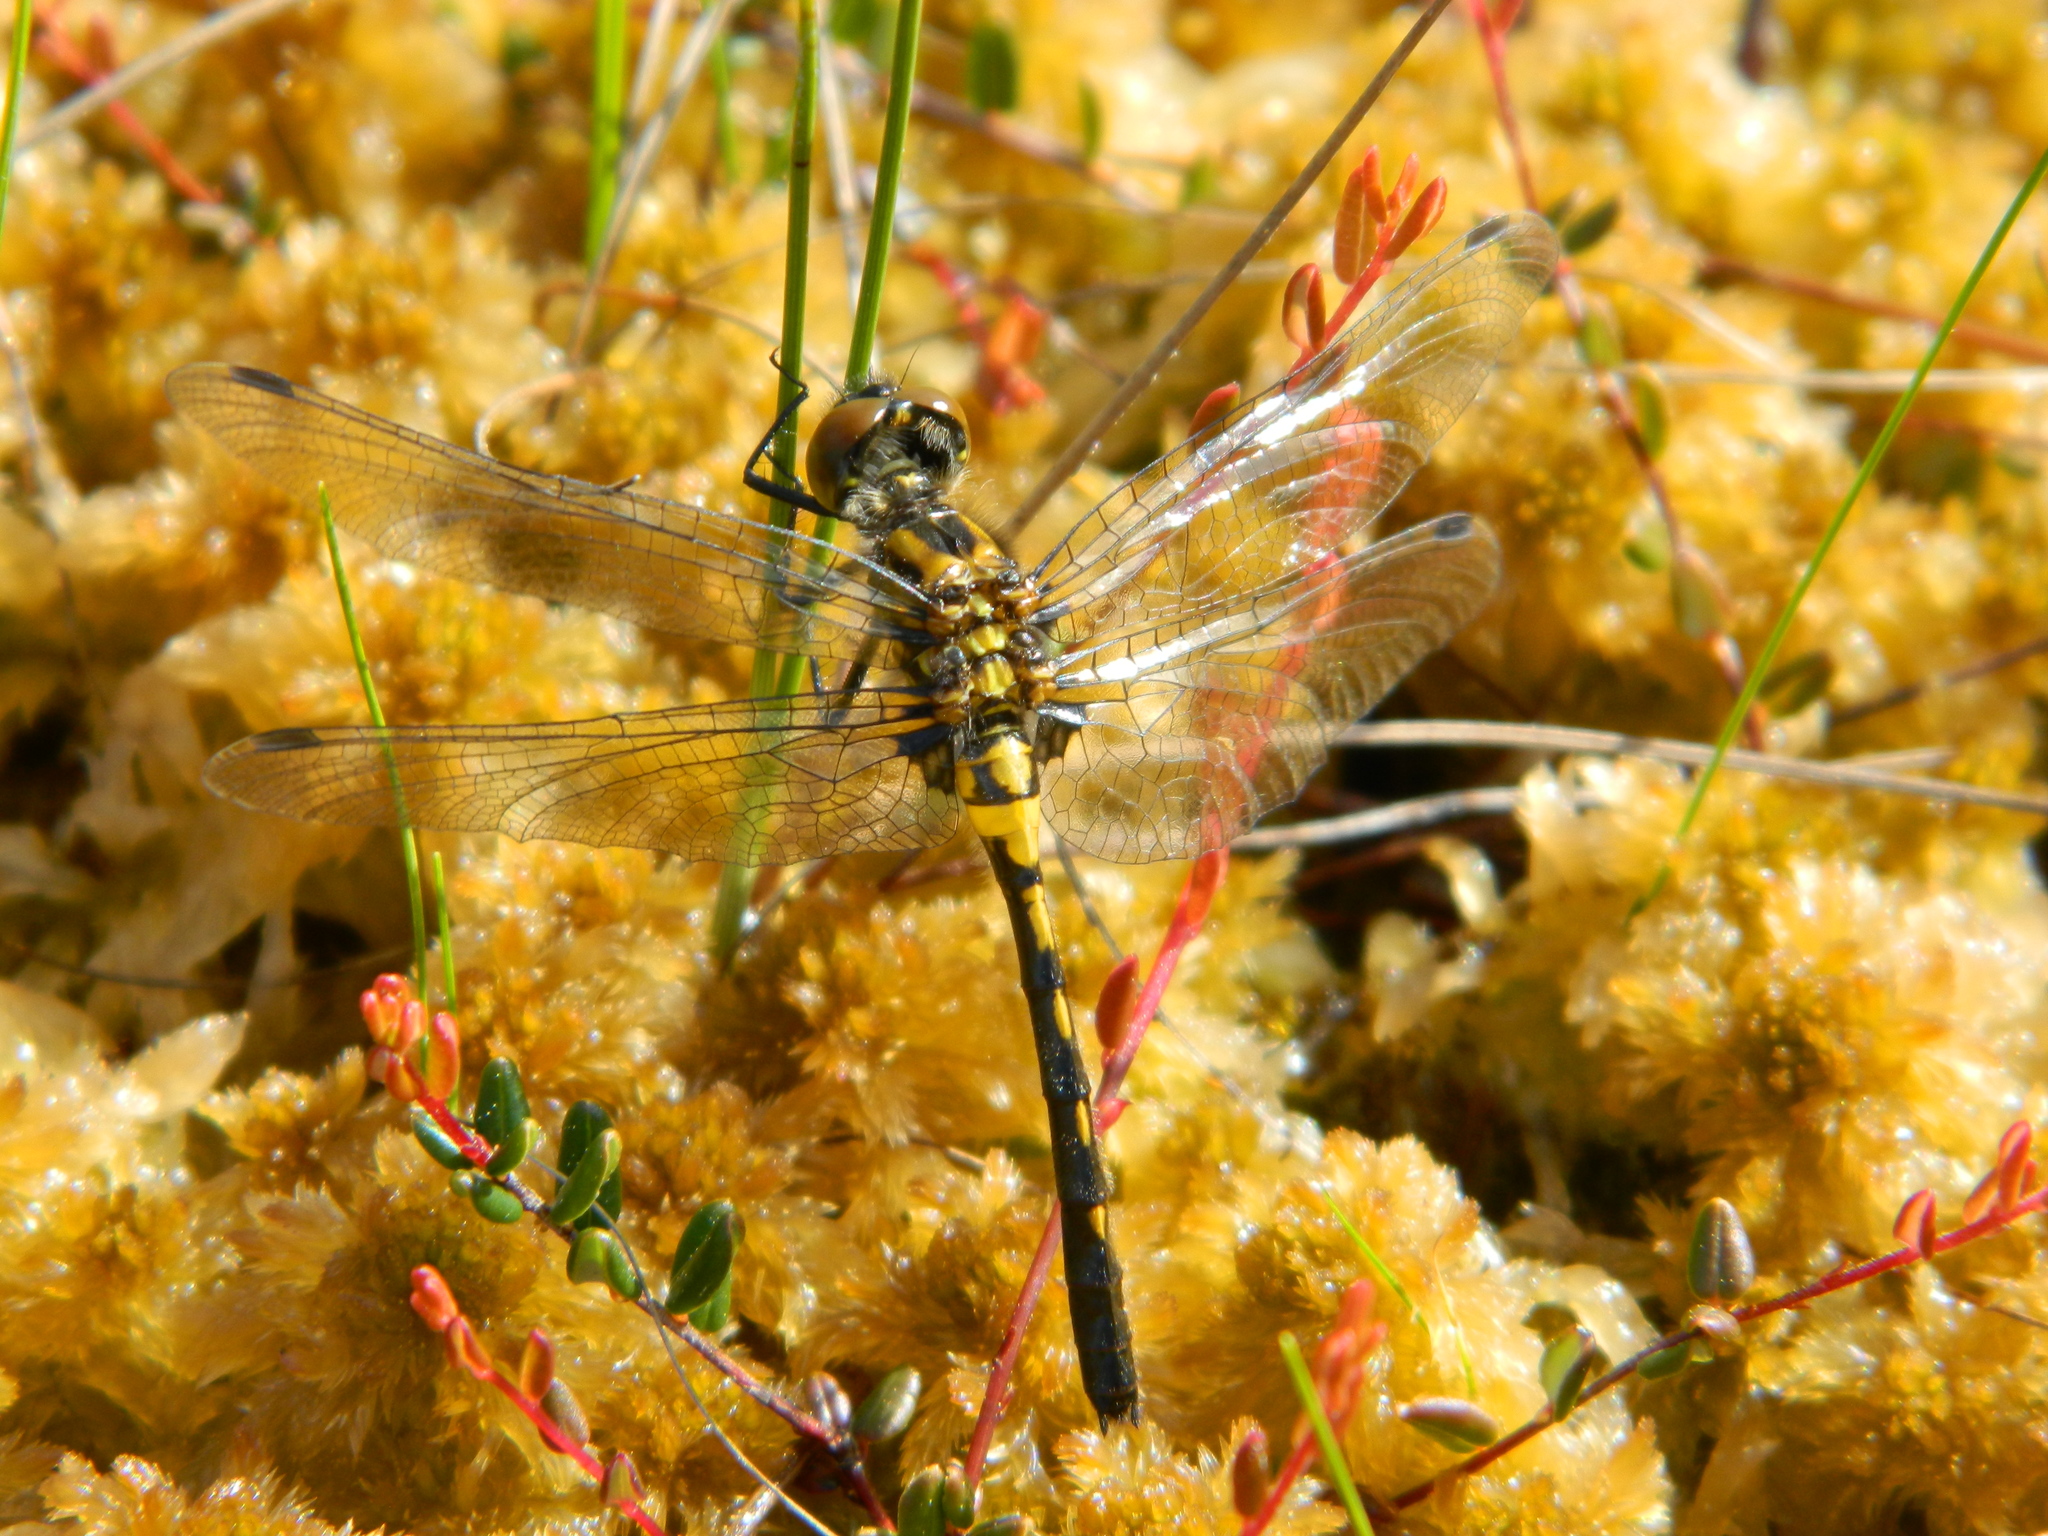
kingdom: Animalia
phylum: Arthropoda
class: Insecta
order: Odonata
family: Libellulidae
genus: Leucorrhinia
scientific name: Leucorrhinia glacialis
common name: Crimson-ringed whiteface
